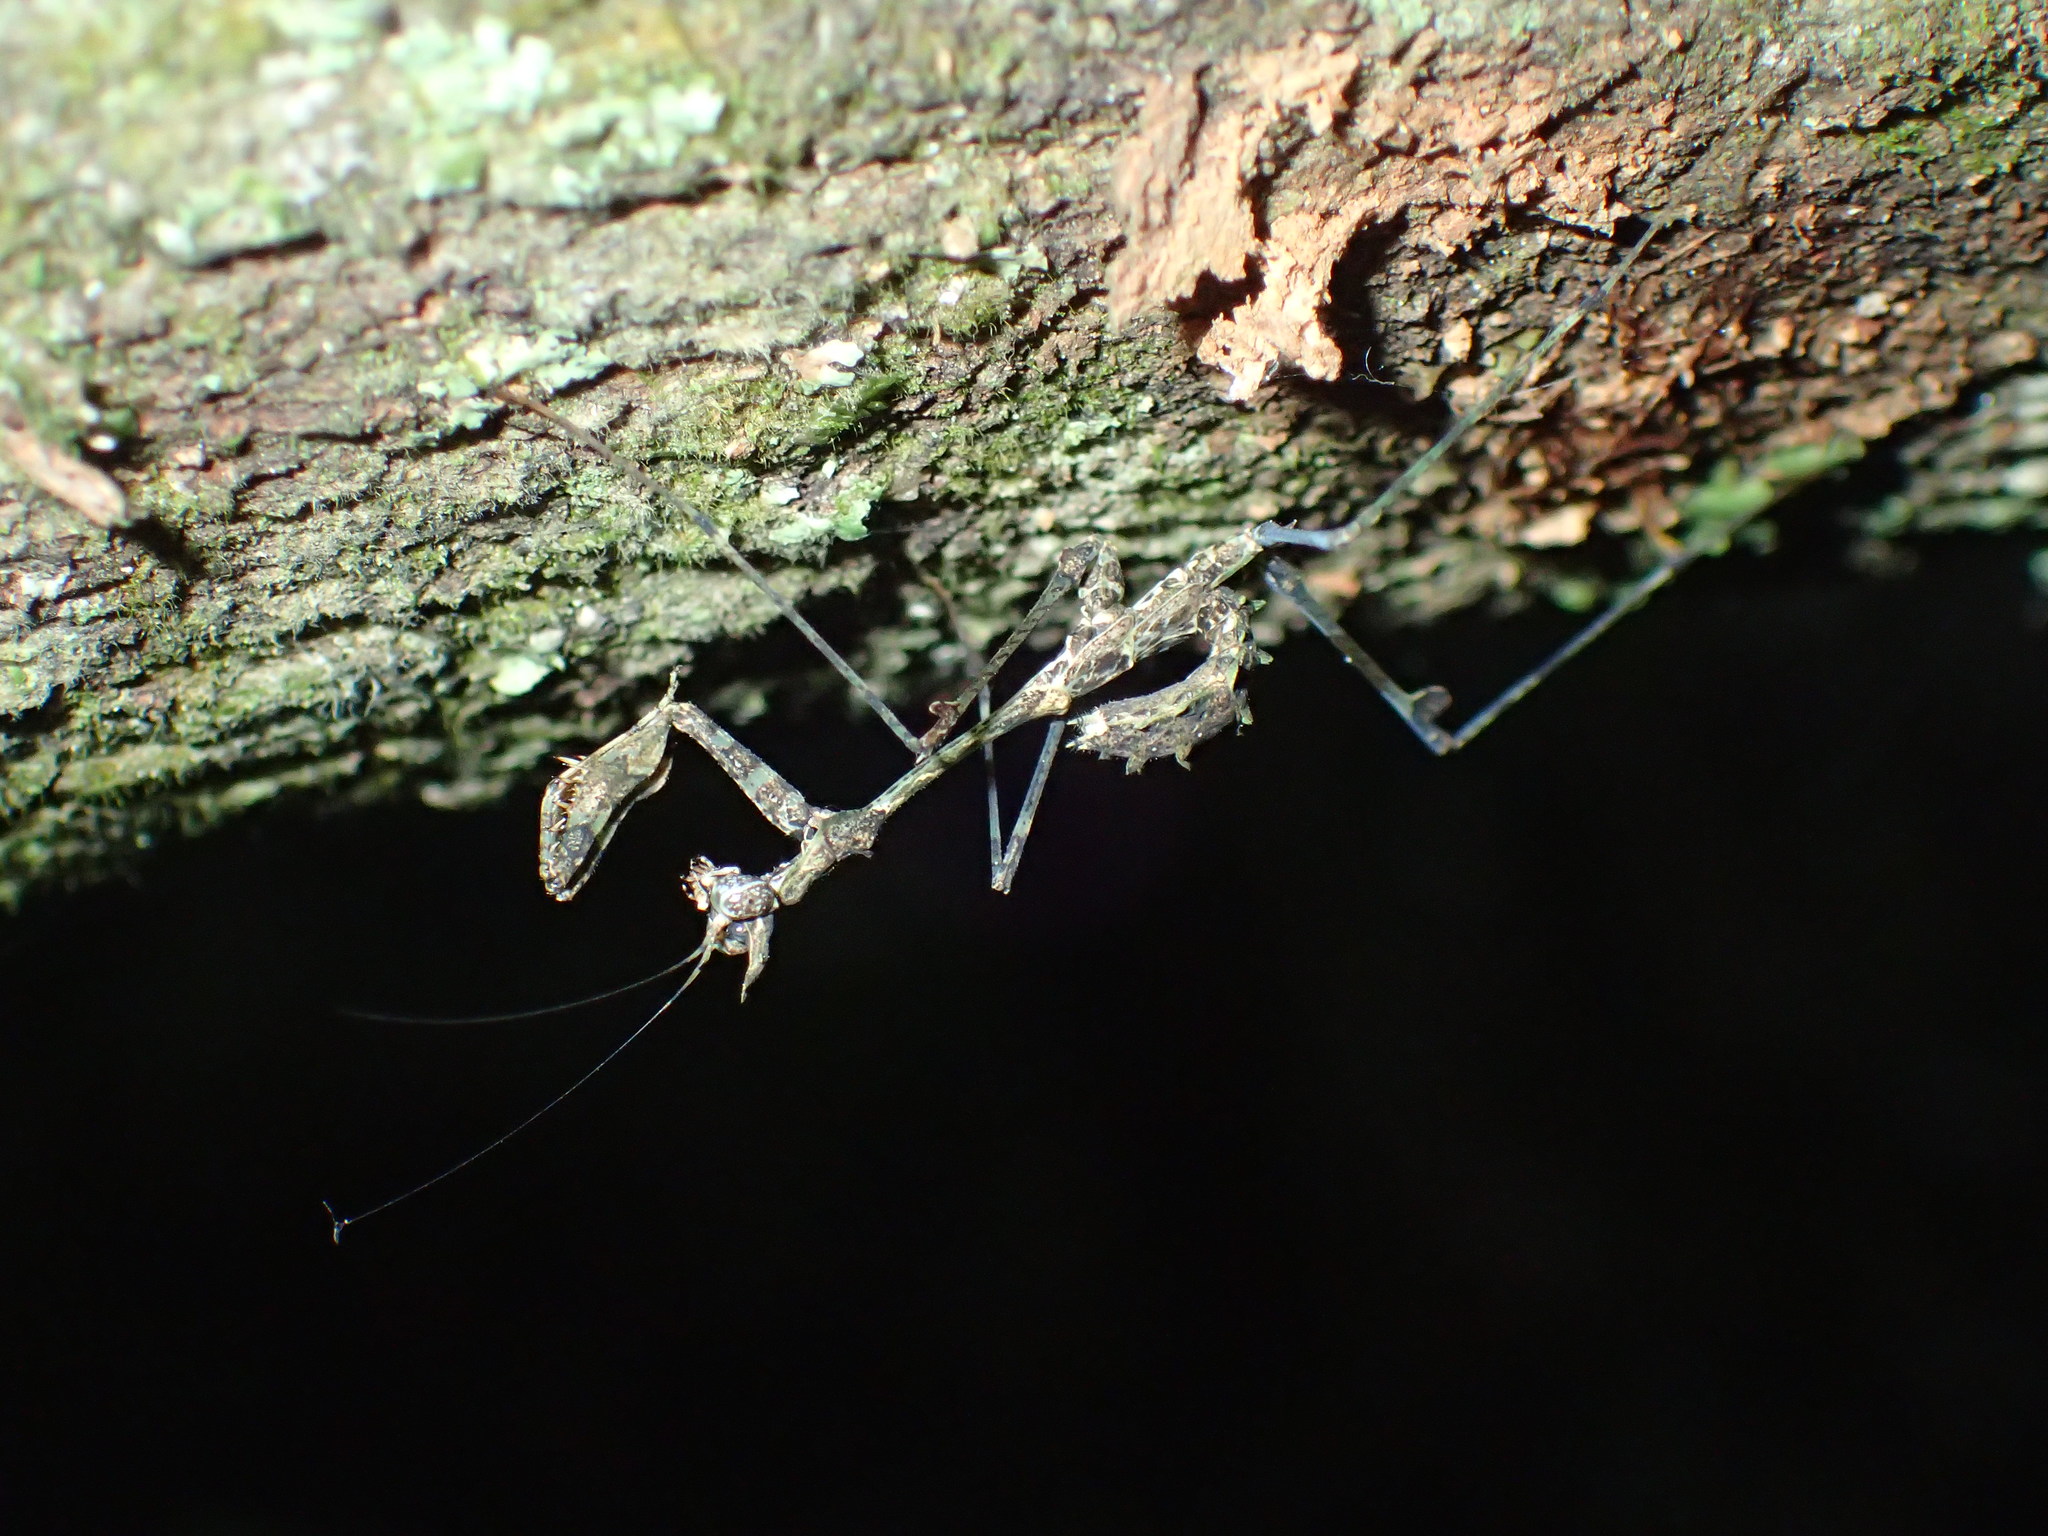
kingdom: Animalia
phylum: Arthropoda
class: Insecta
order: Mantodea
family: Hymenopodidae
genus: Sibylla
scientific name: Sibylla pretiosa
